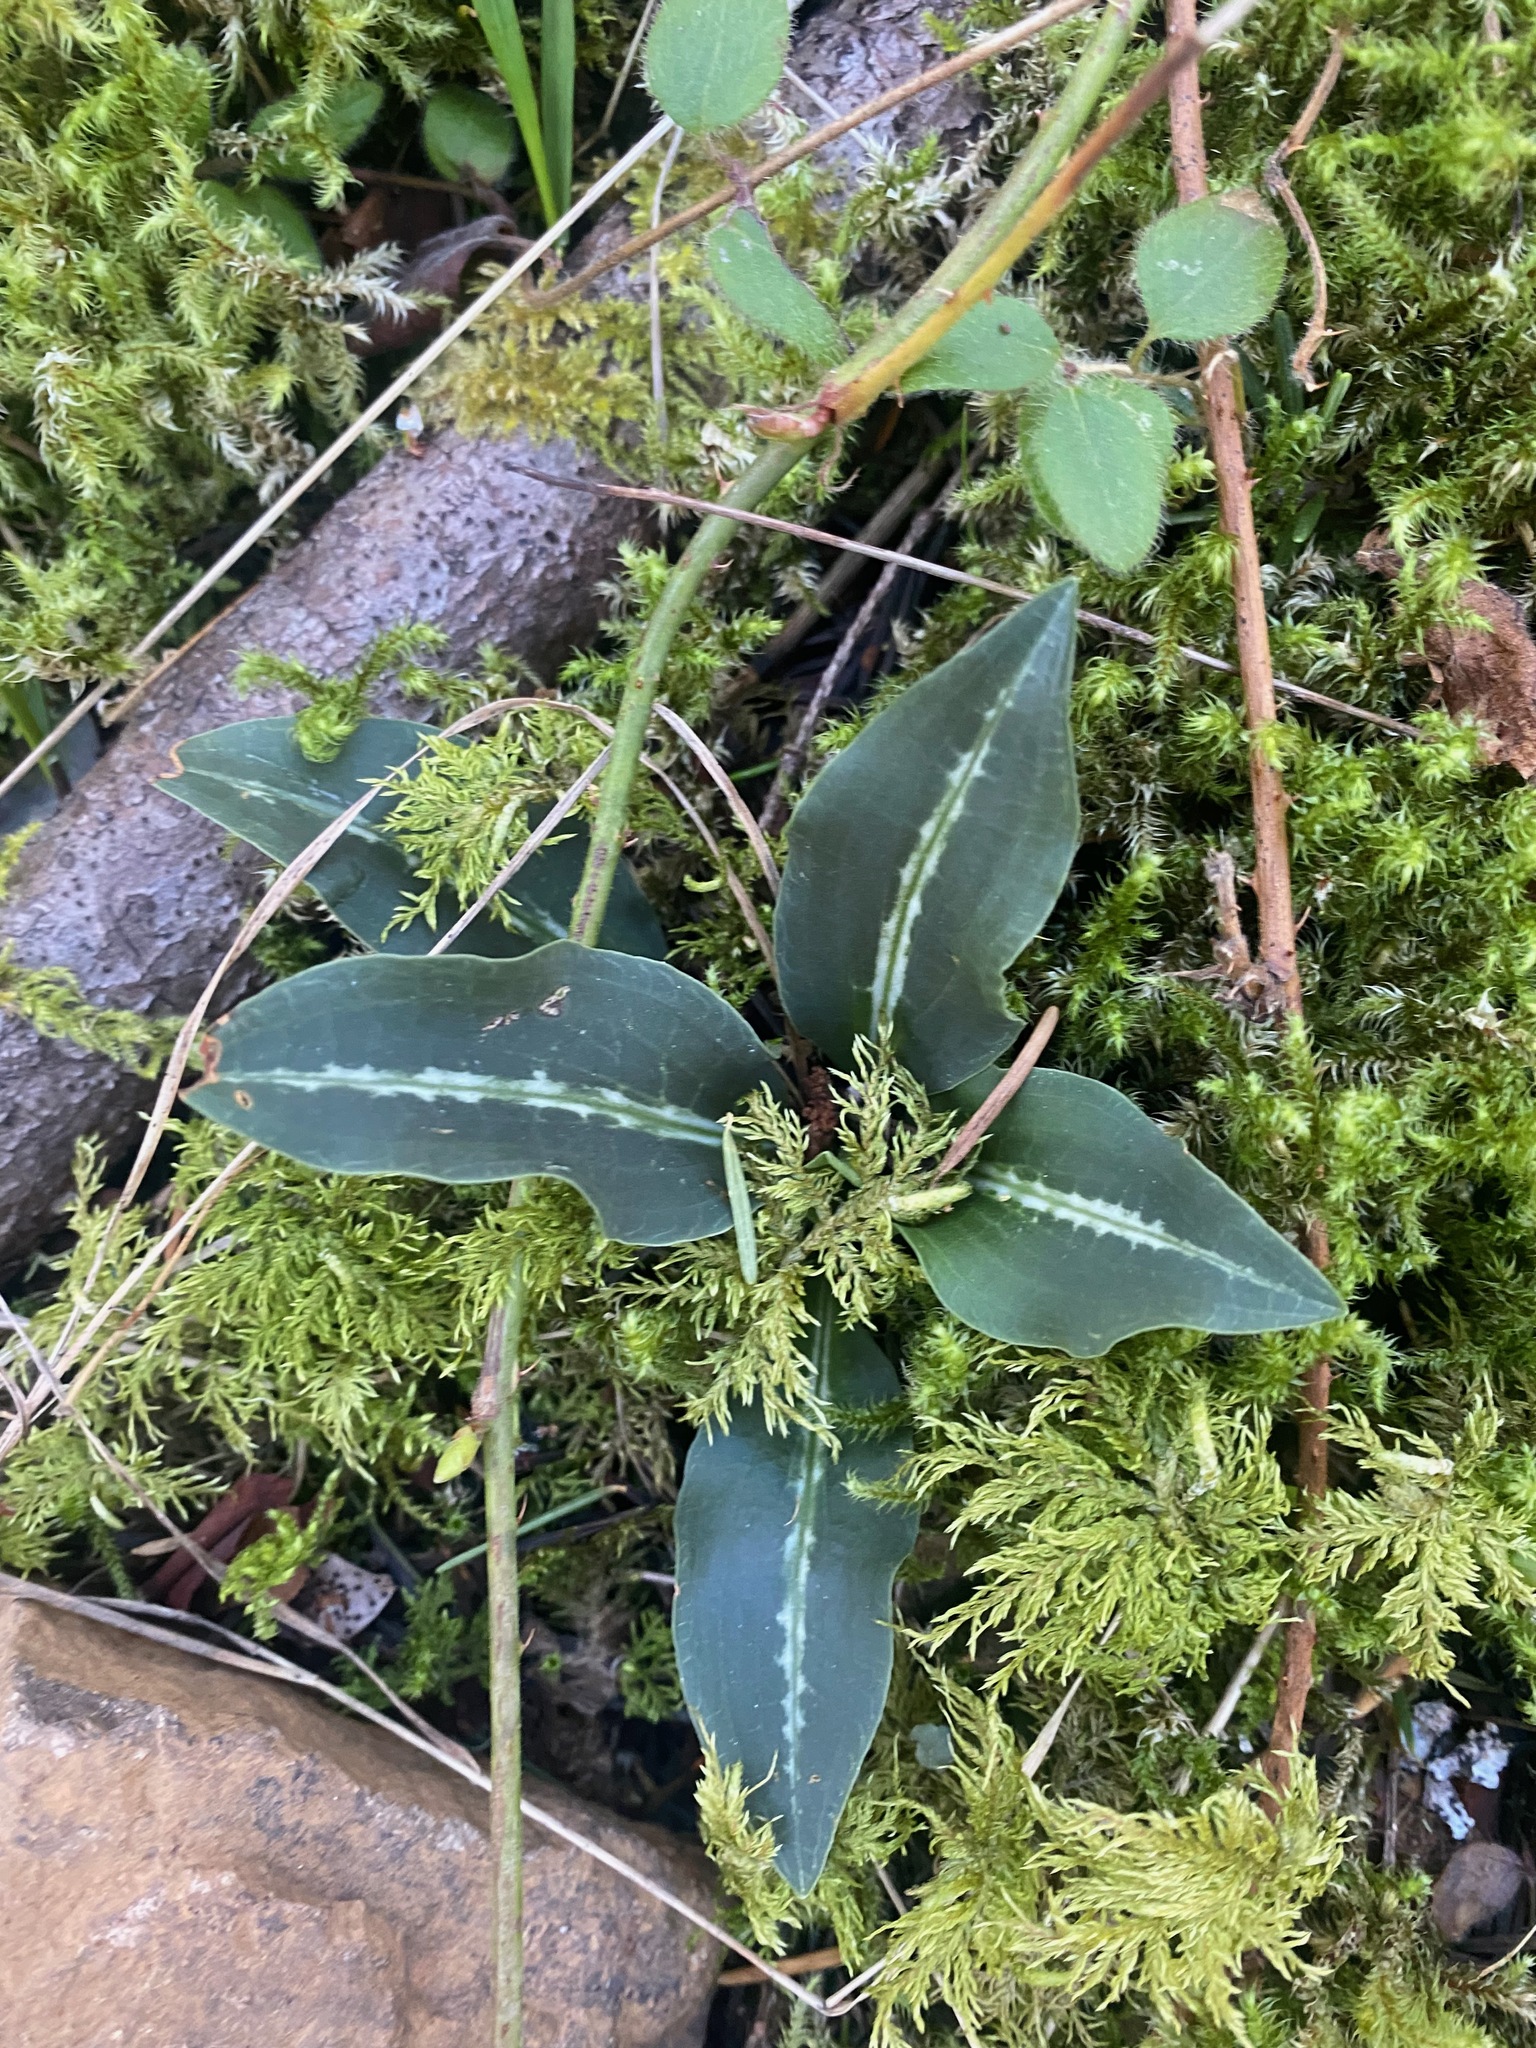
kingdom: Plantae
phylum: Tracheophyta
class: Liliopsida
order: Asparagales
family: Orchidaceae
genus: Goodyera
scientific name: Goodyera oblongifolia
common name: Giant rattlesnake-plantain
